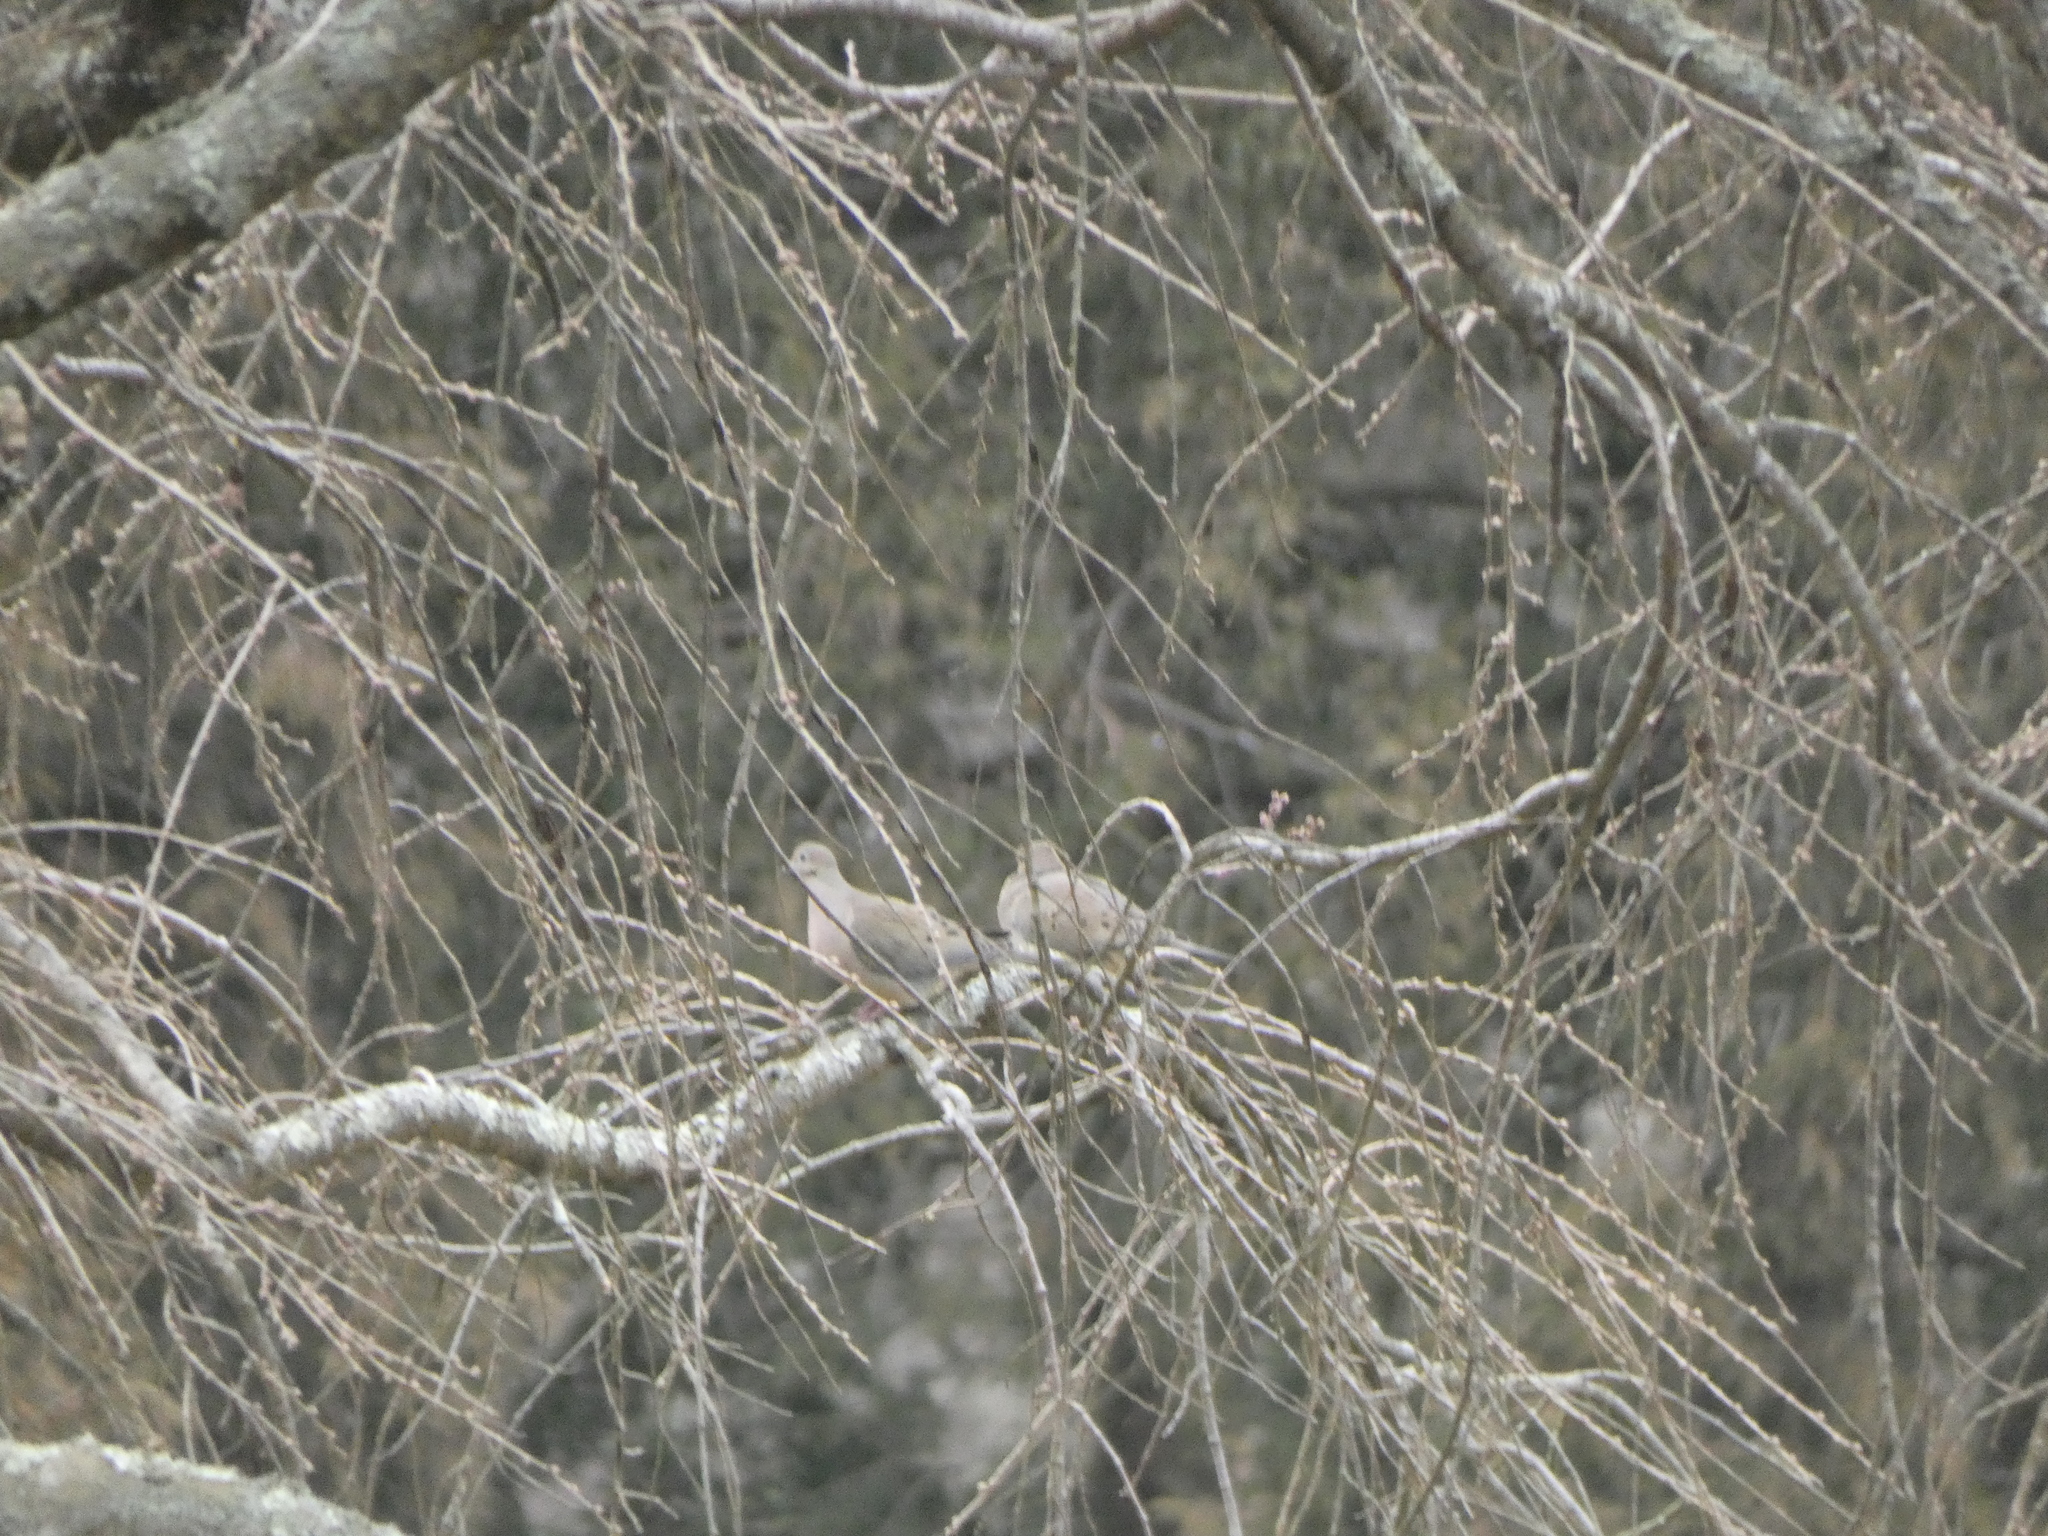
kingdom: Animalia
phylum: Chordata
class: Aves
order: Columbiformes
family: Columbidae
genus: Zenaida
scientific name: Zenaida macroura
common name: Mourning dove
